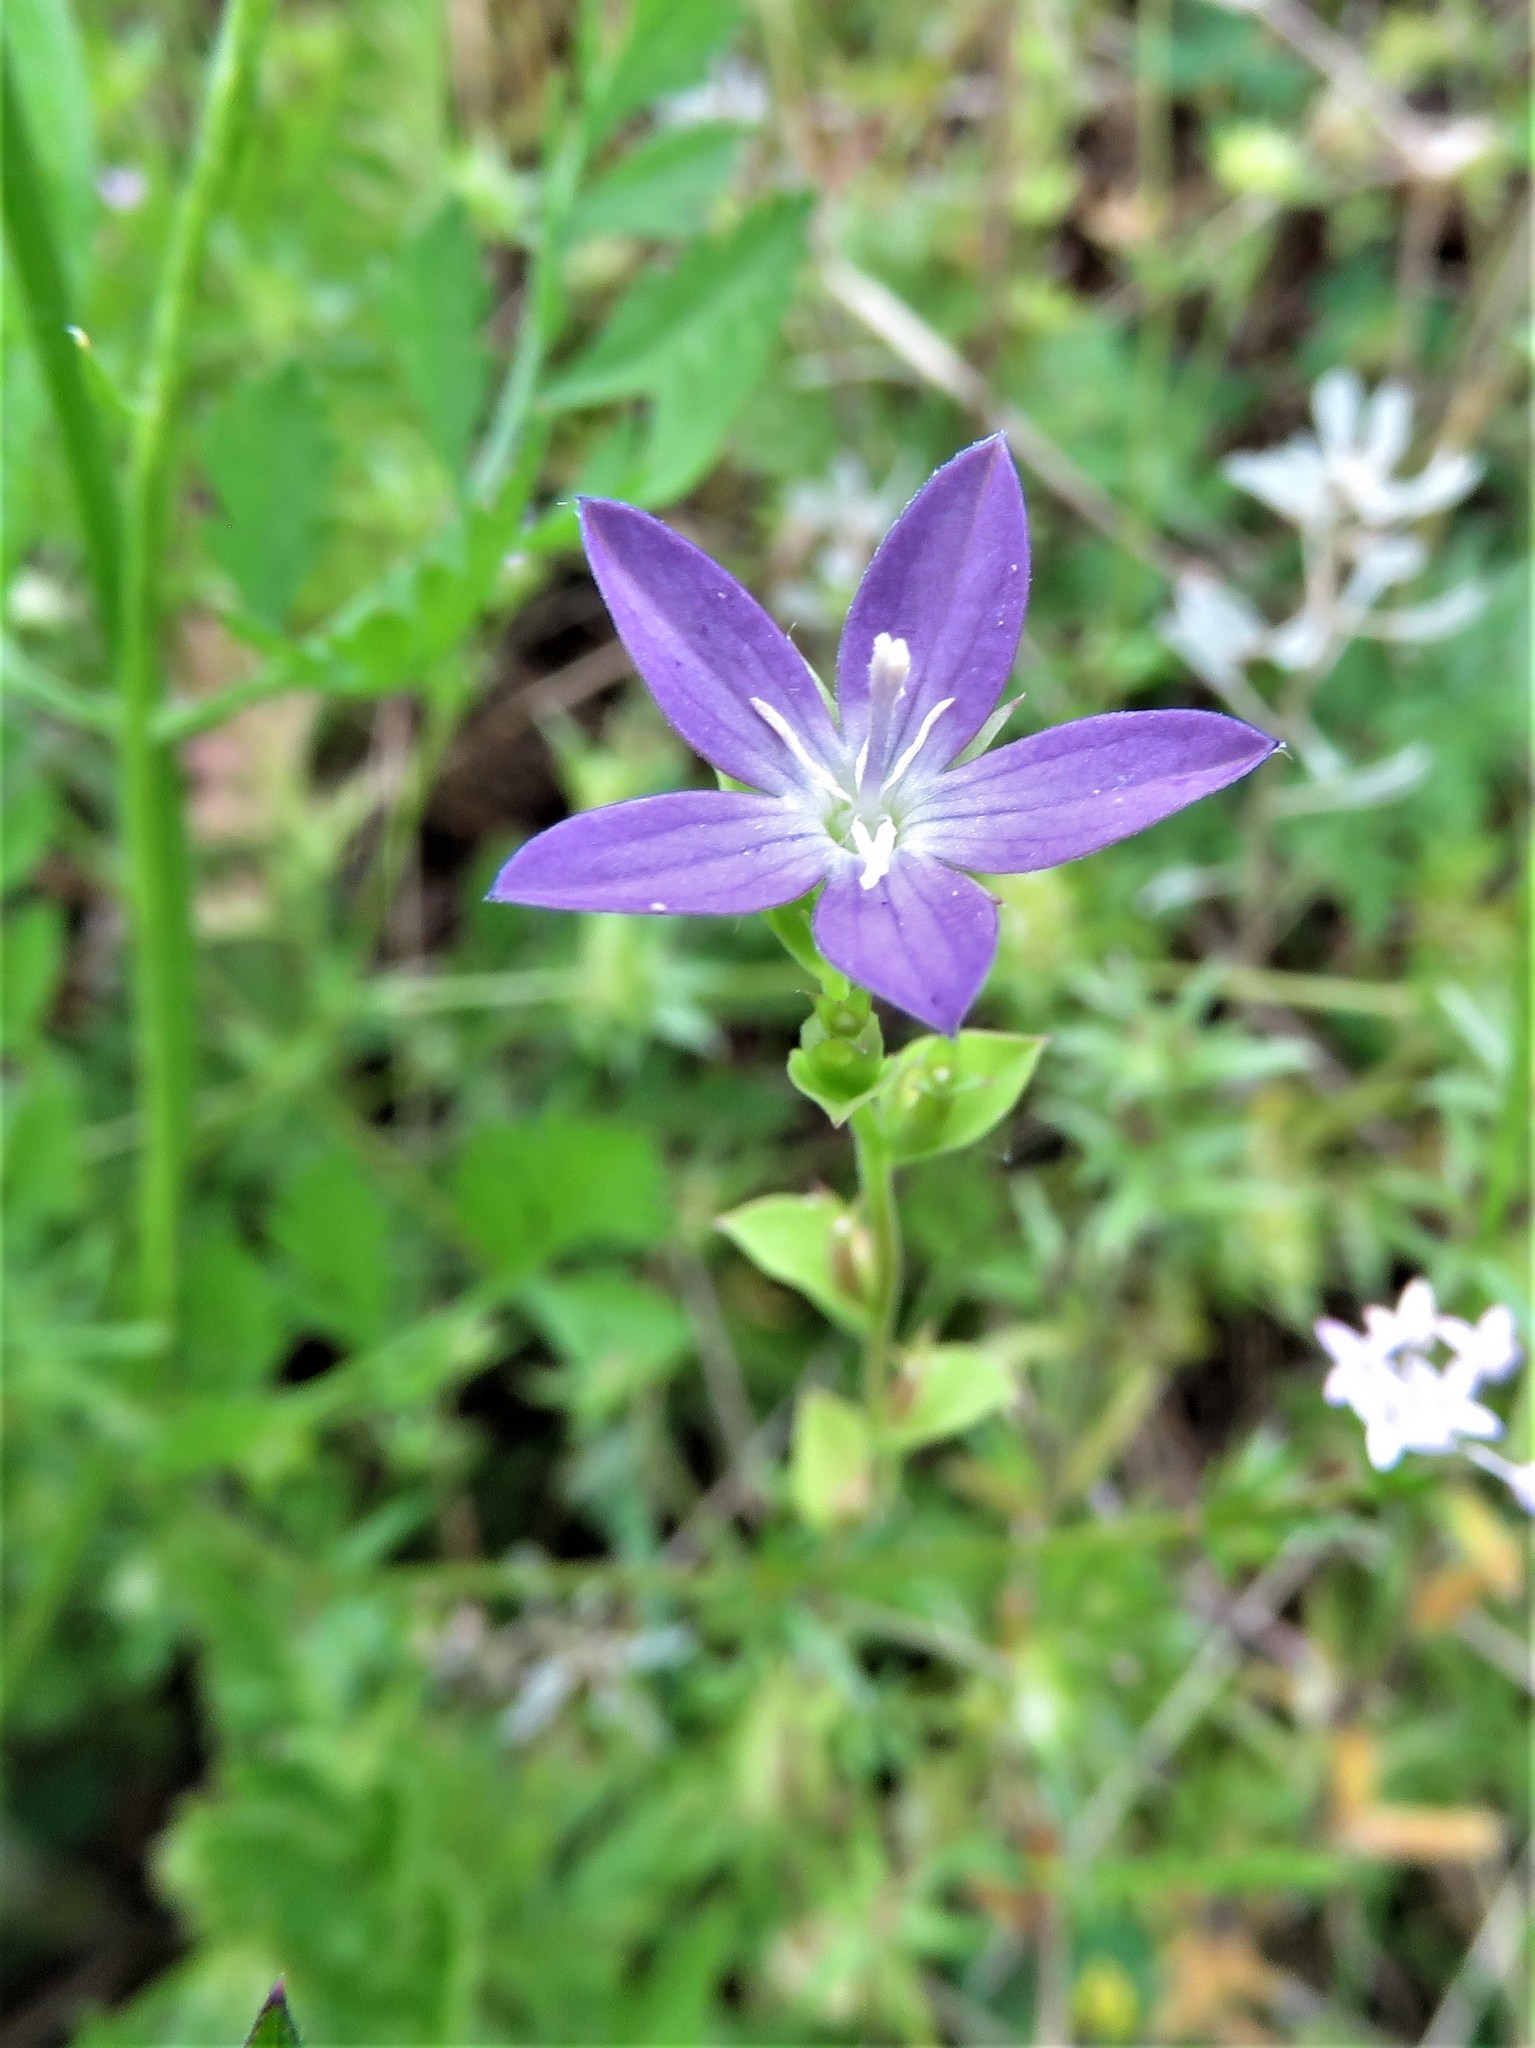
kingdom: Plantae
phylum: Tracheophyta
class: Magnoliopsida
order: Asterales
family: Campanulaceae
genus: Triodanis
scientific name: Triodanis biflora
